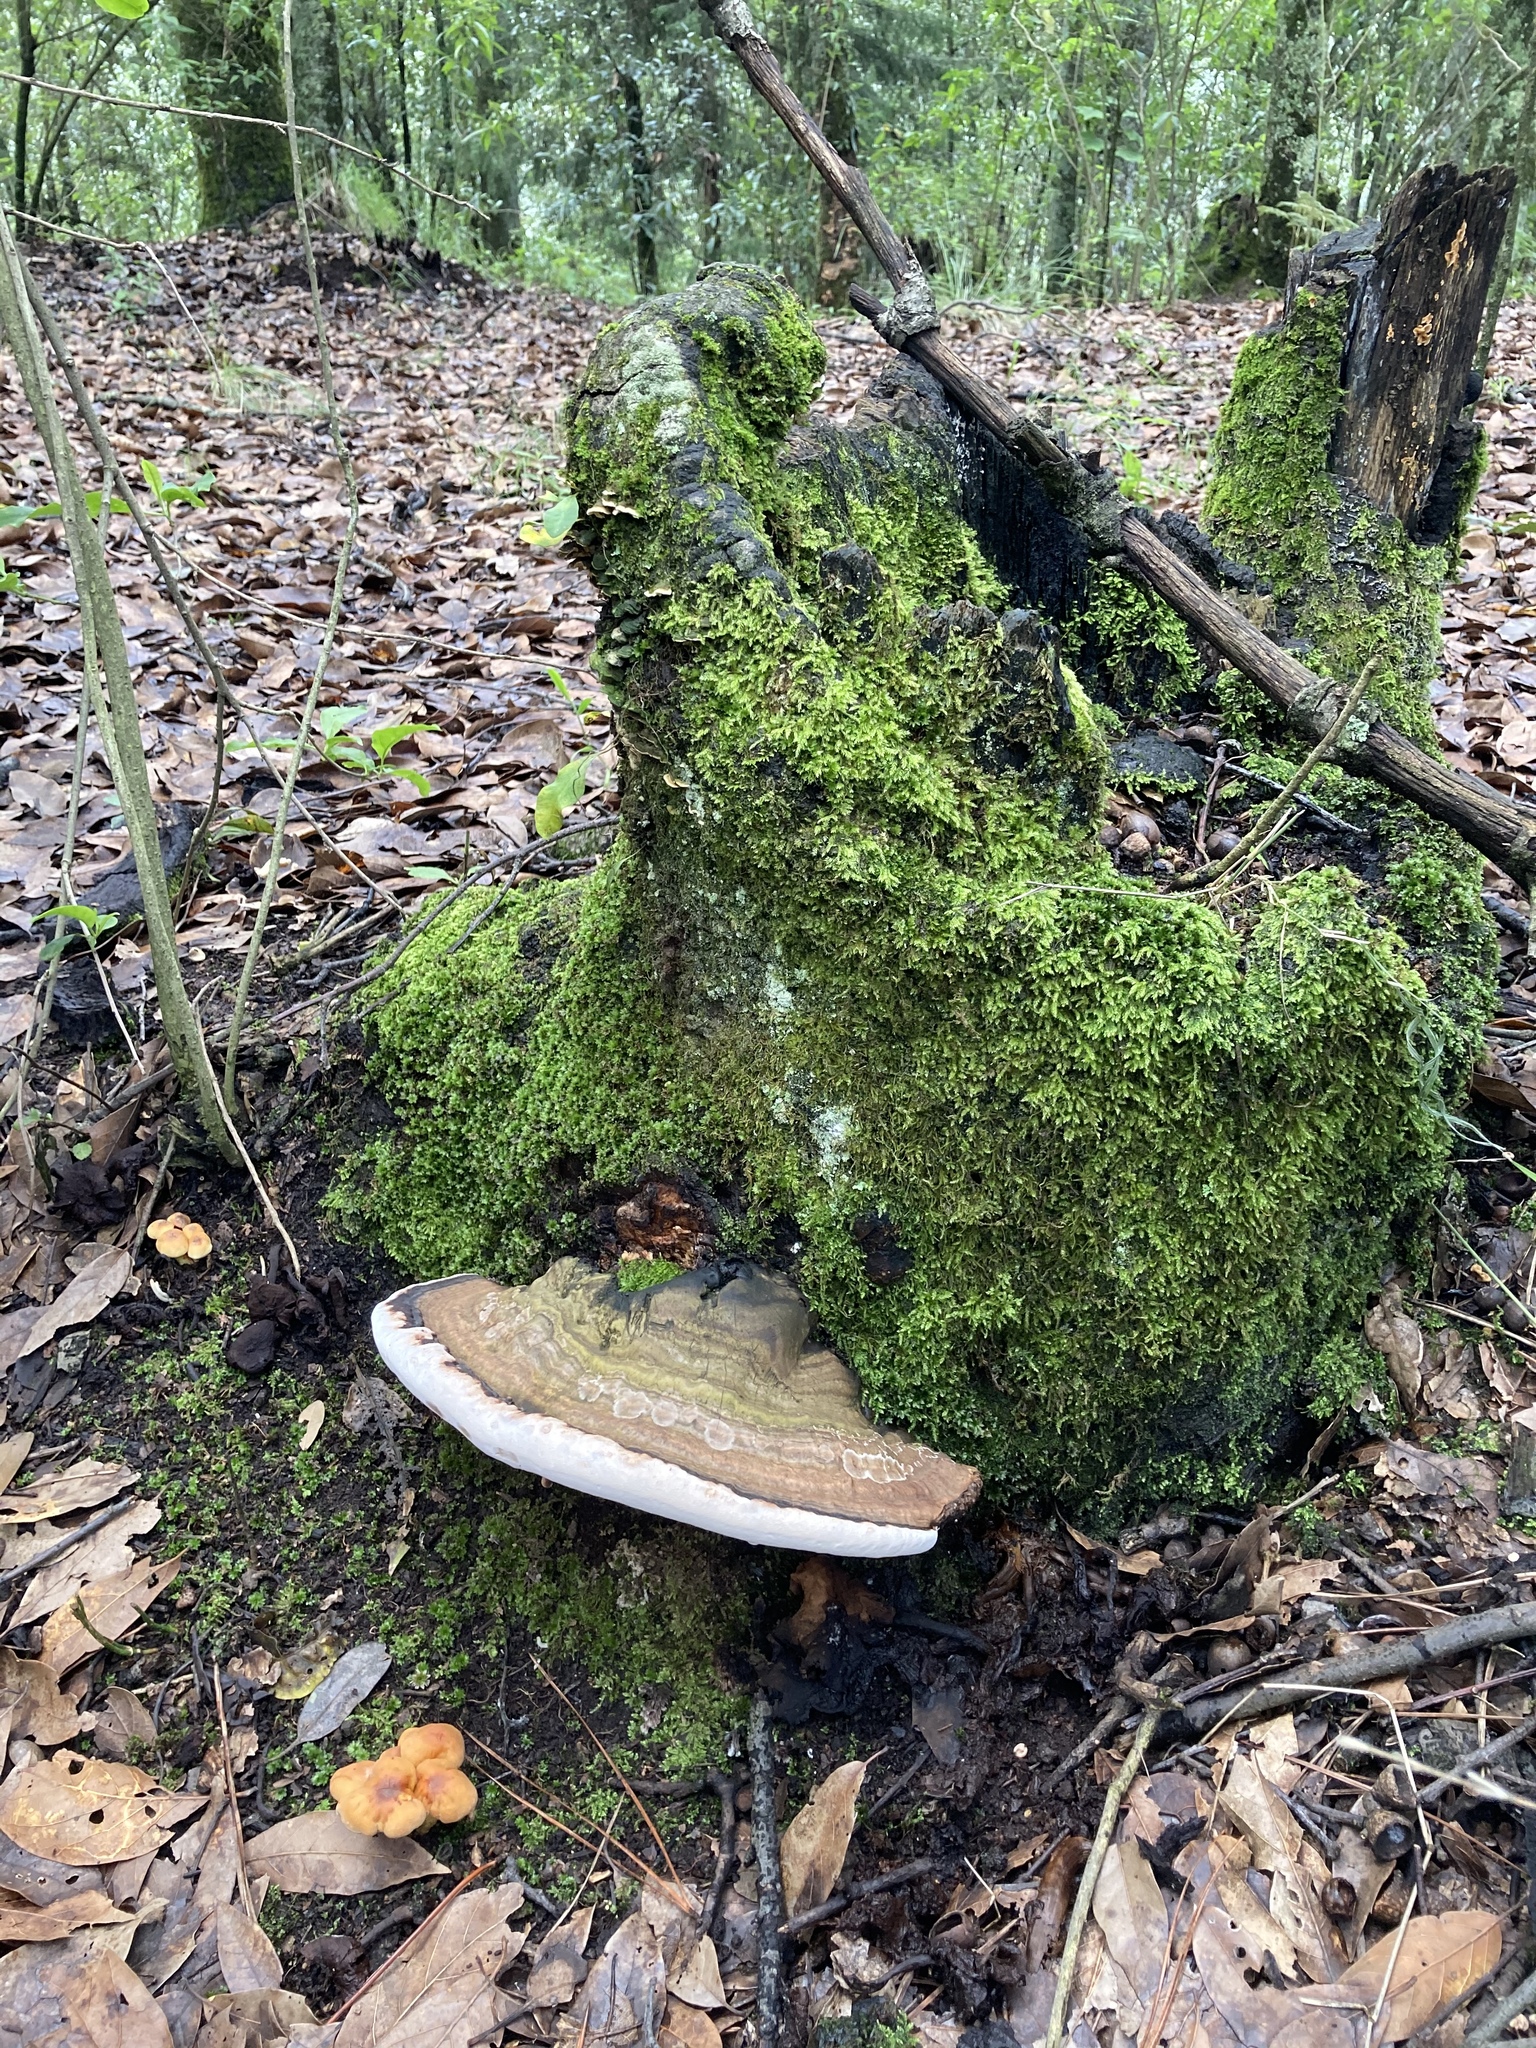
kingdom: Fungi
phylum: Basidiomycota
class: Agaricomycetes
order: Polyporales
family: Polyporaceae
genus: Ganoderma
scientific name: Ganoderma applanatum
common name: Artist's bracket
